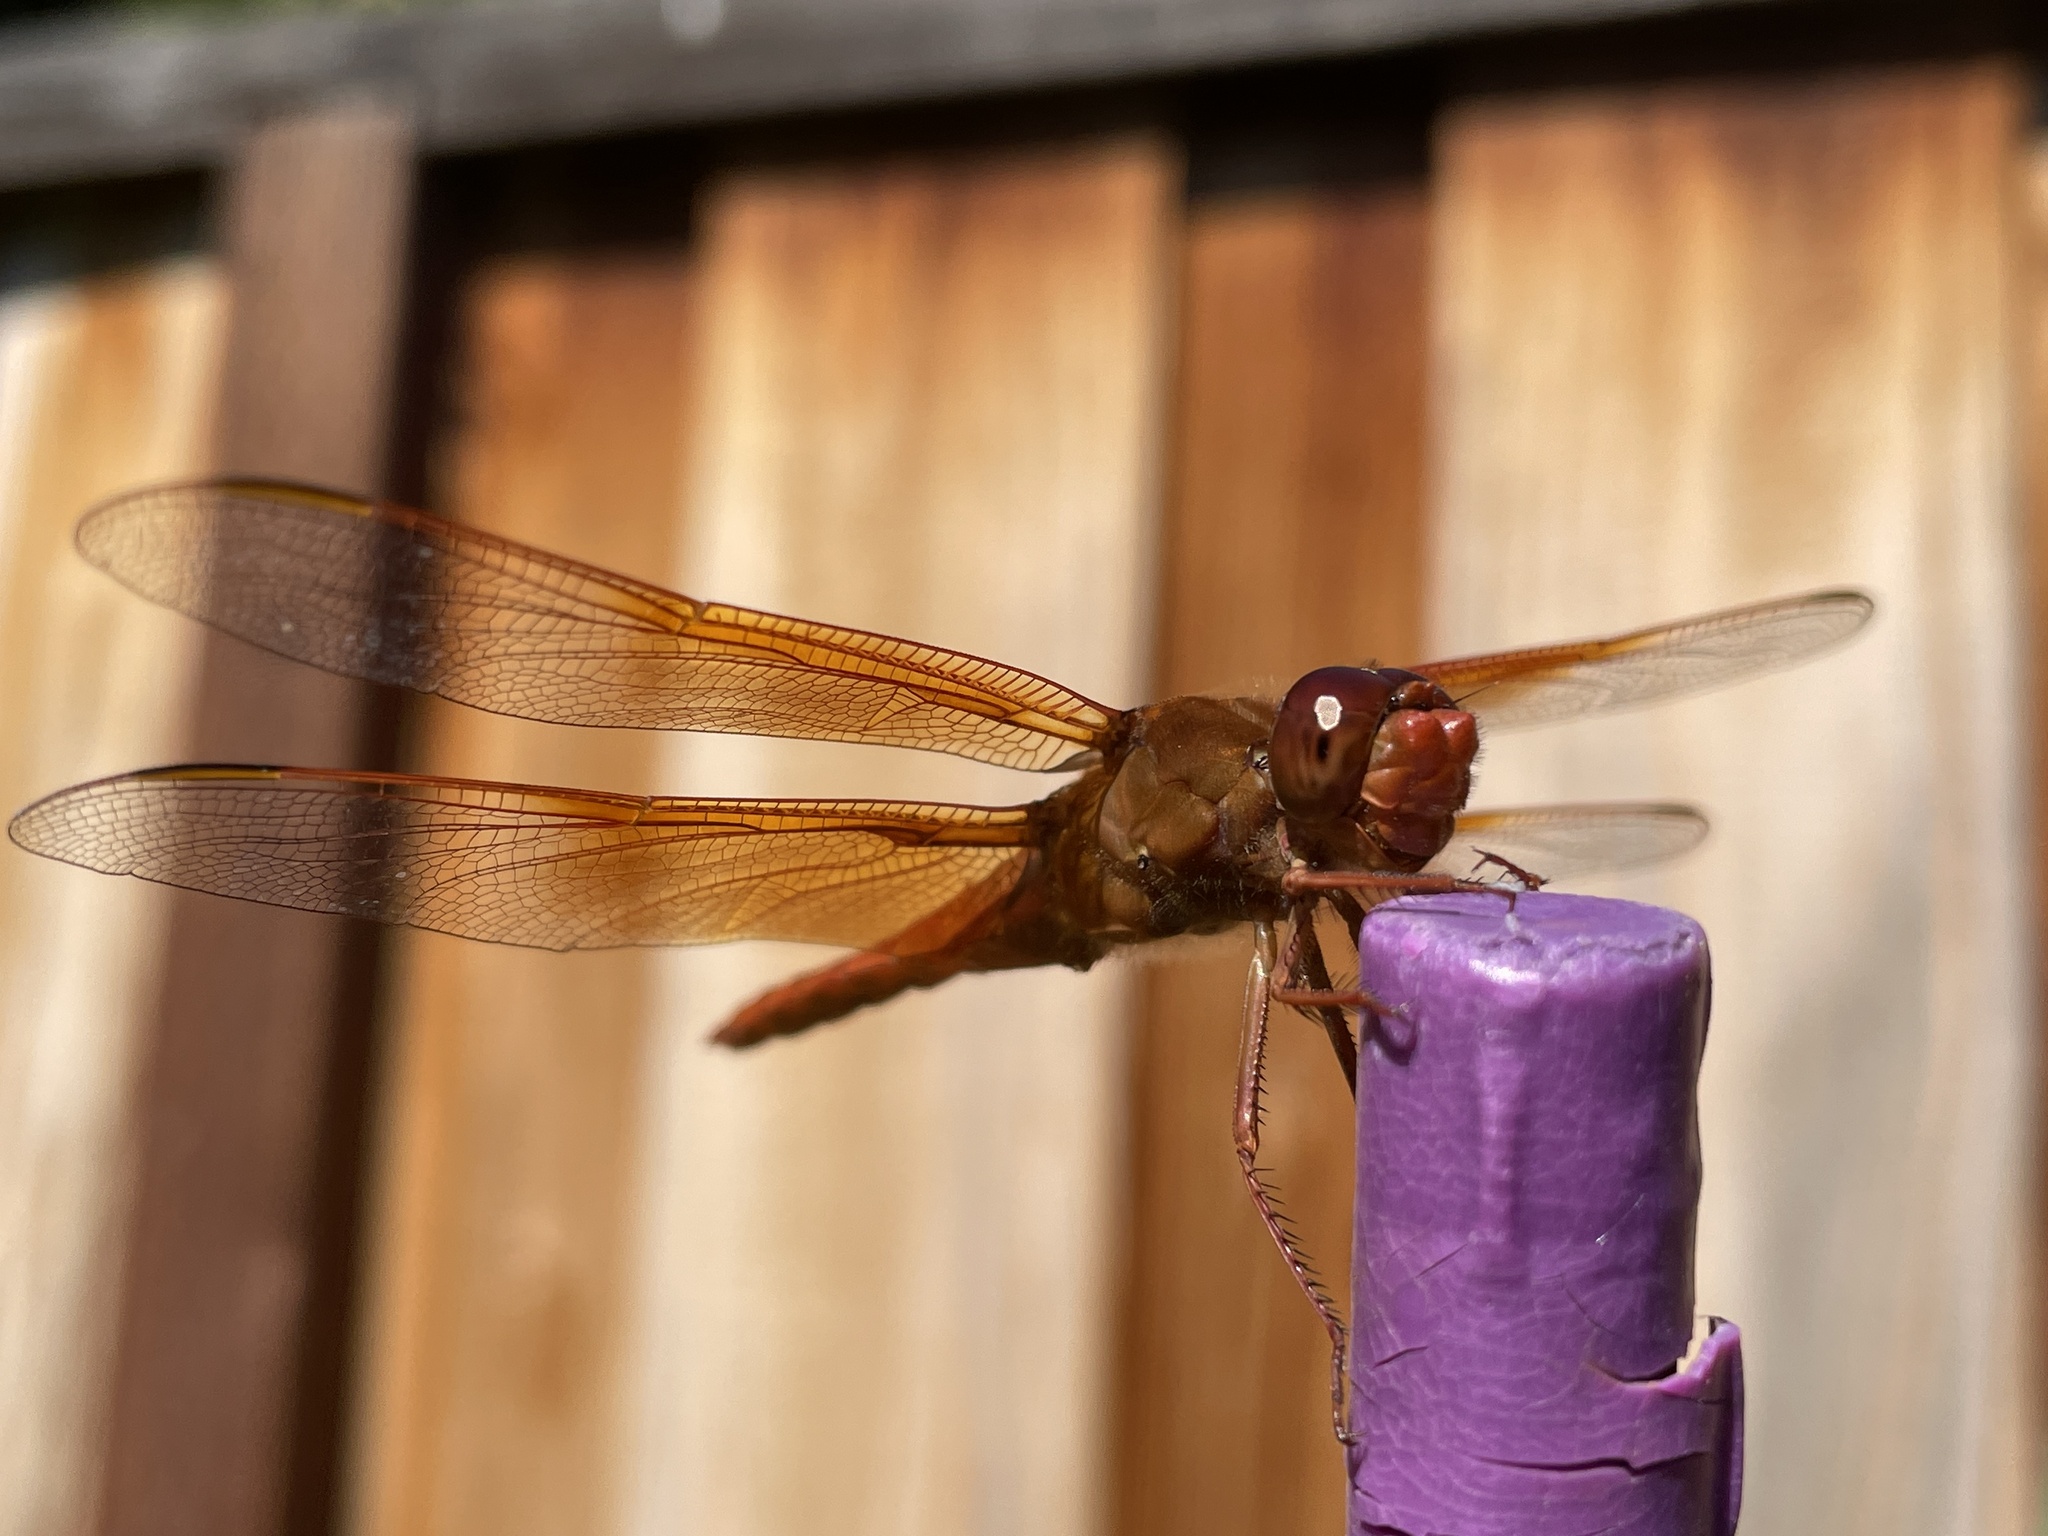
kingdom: Animalia
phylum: Arthropoda
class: Insecta
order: Odonata
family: Libellulidae
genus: Libellula
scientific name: Libellula saturata
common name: Flame skimmer
